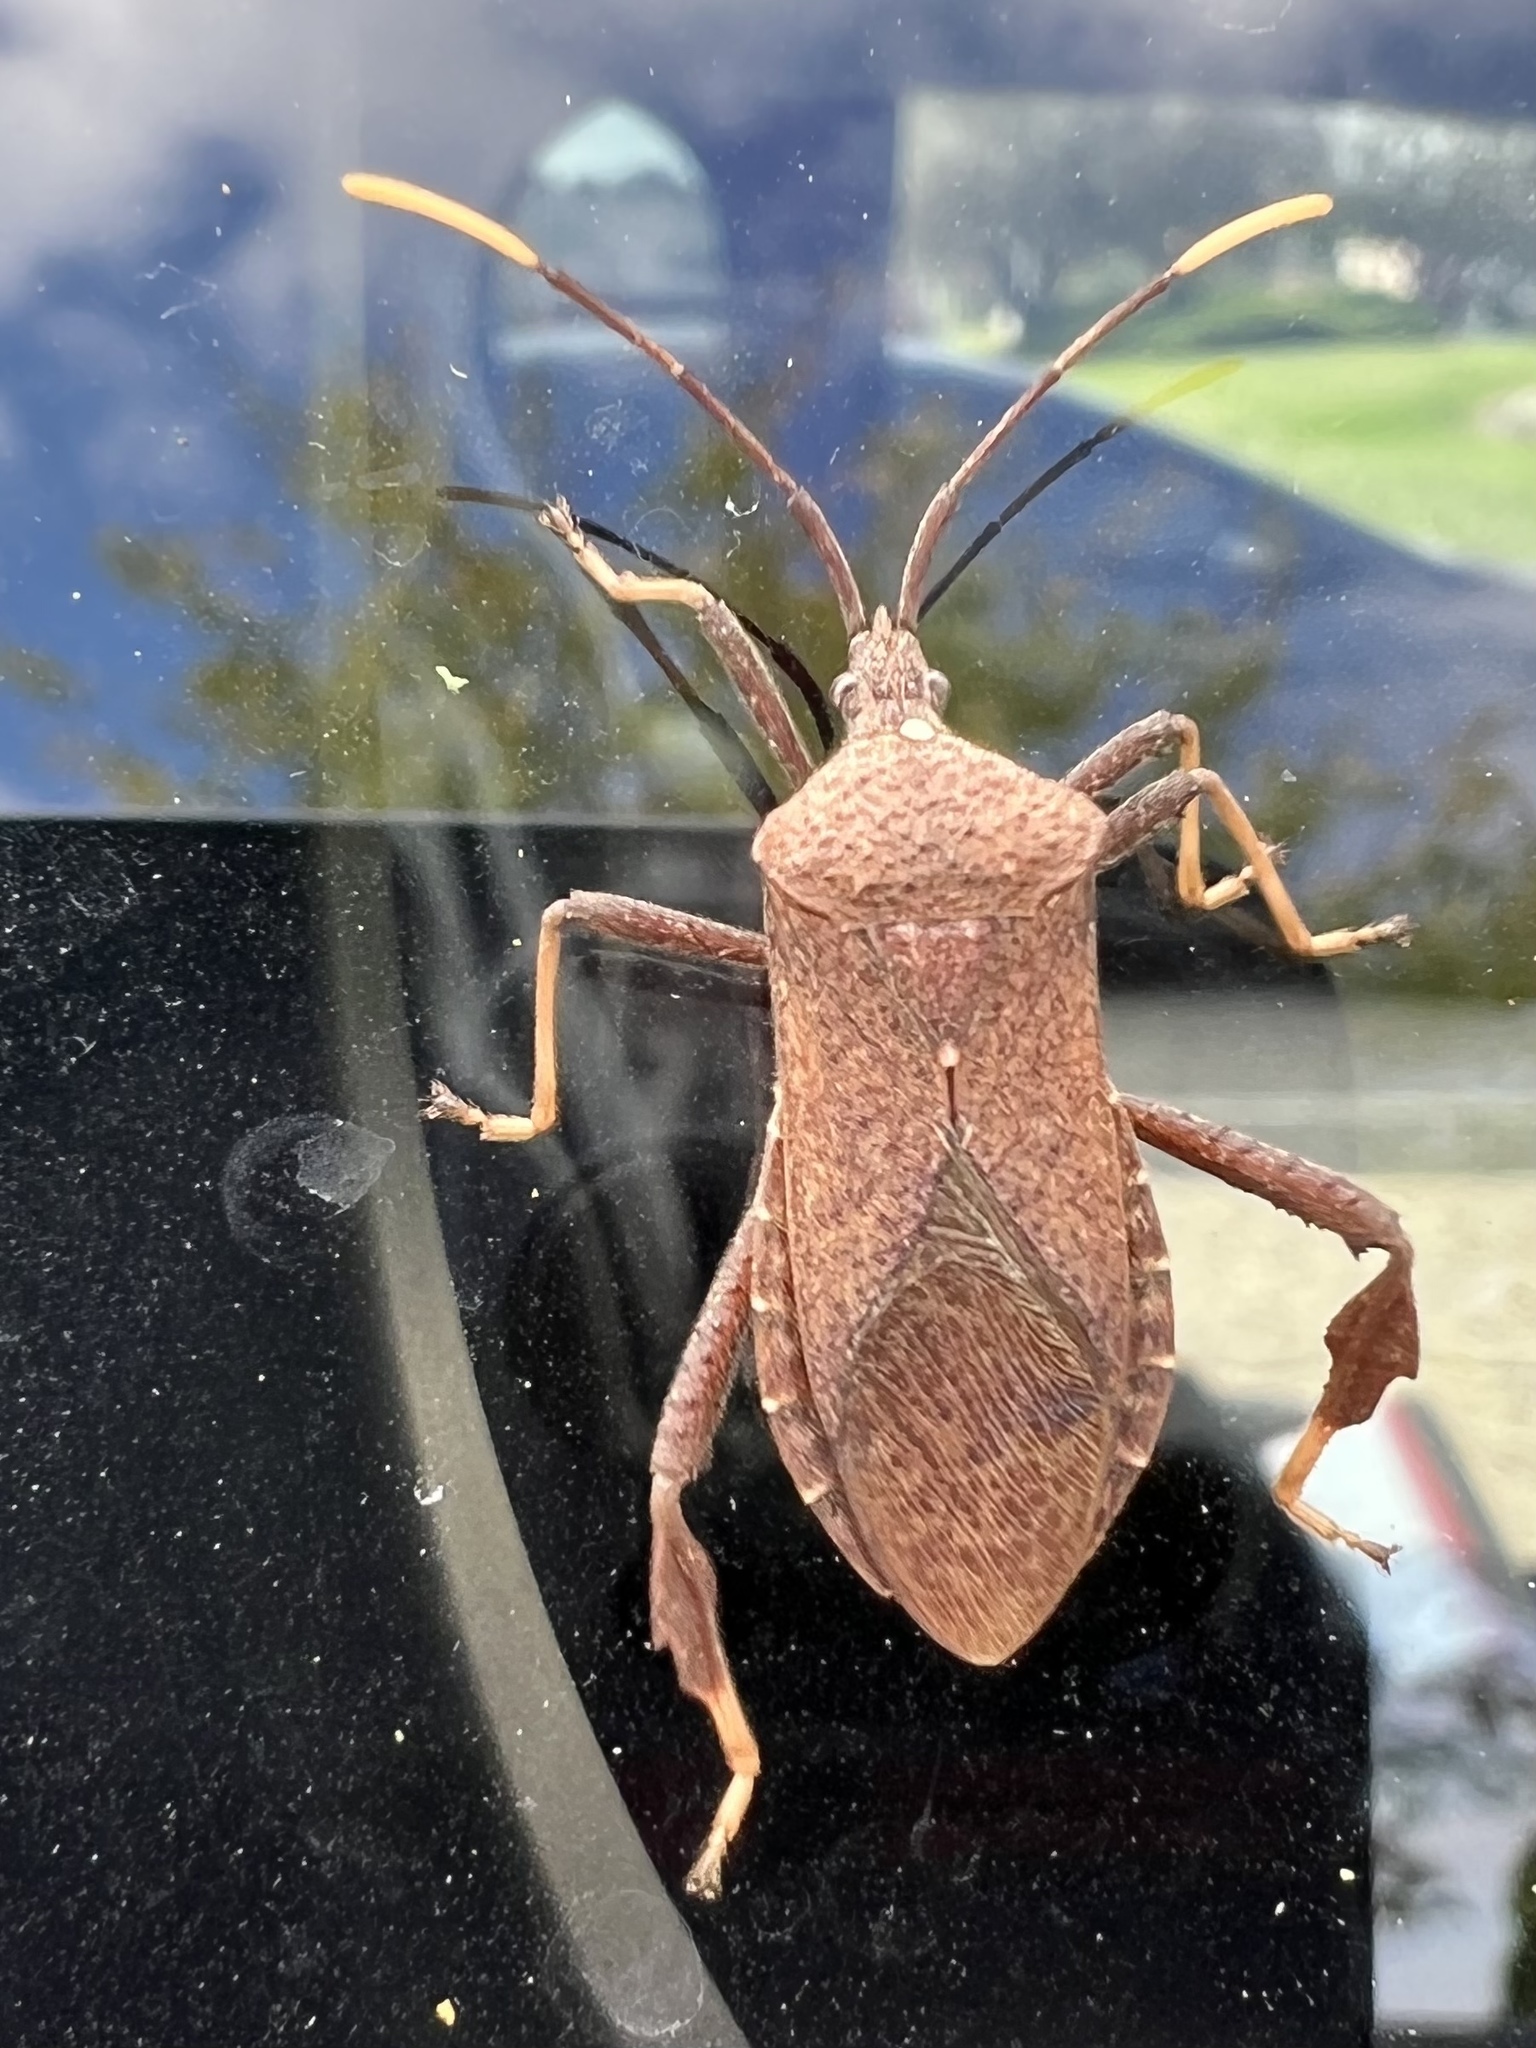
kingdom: Animalia
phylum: Arthropoda
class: Insecta
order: Hemiptera
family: Coreidae
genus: Acanthocephala
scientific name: Acanthocephala terminalis
